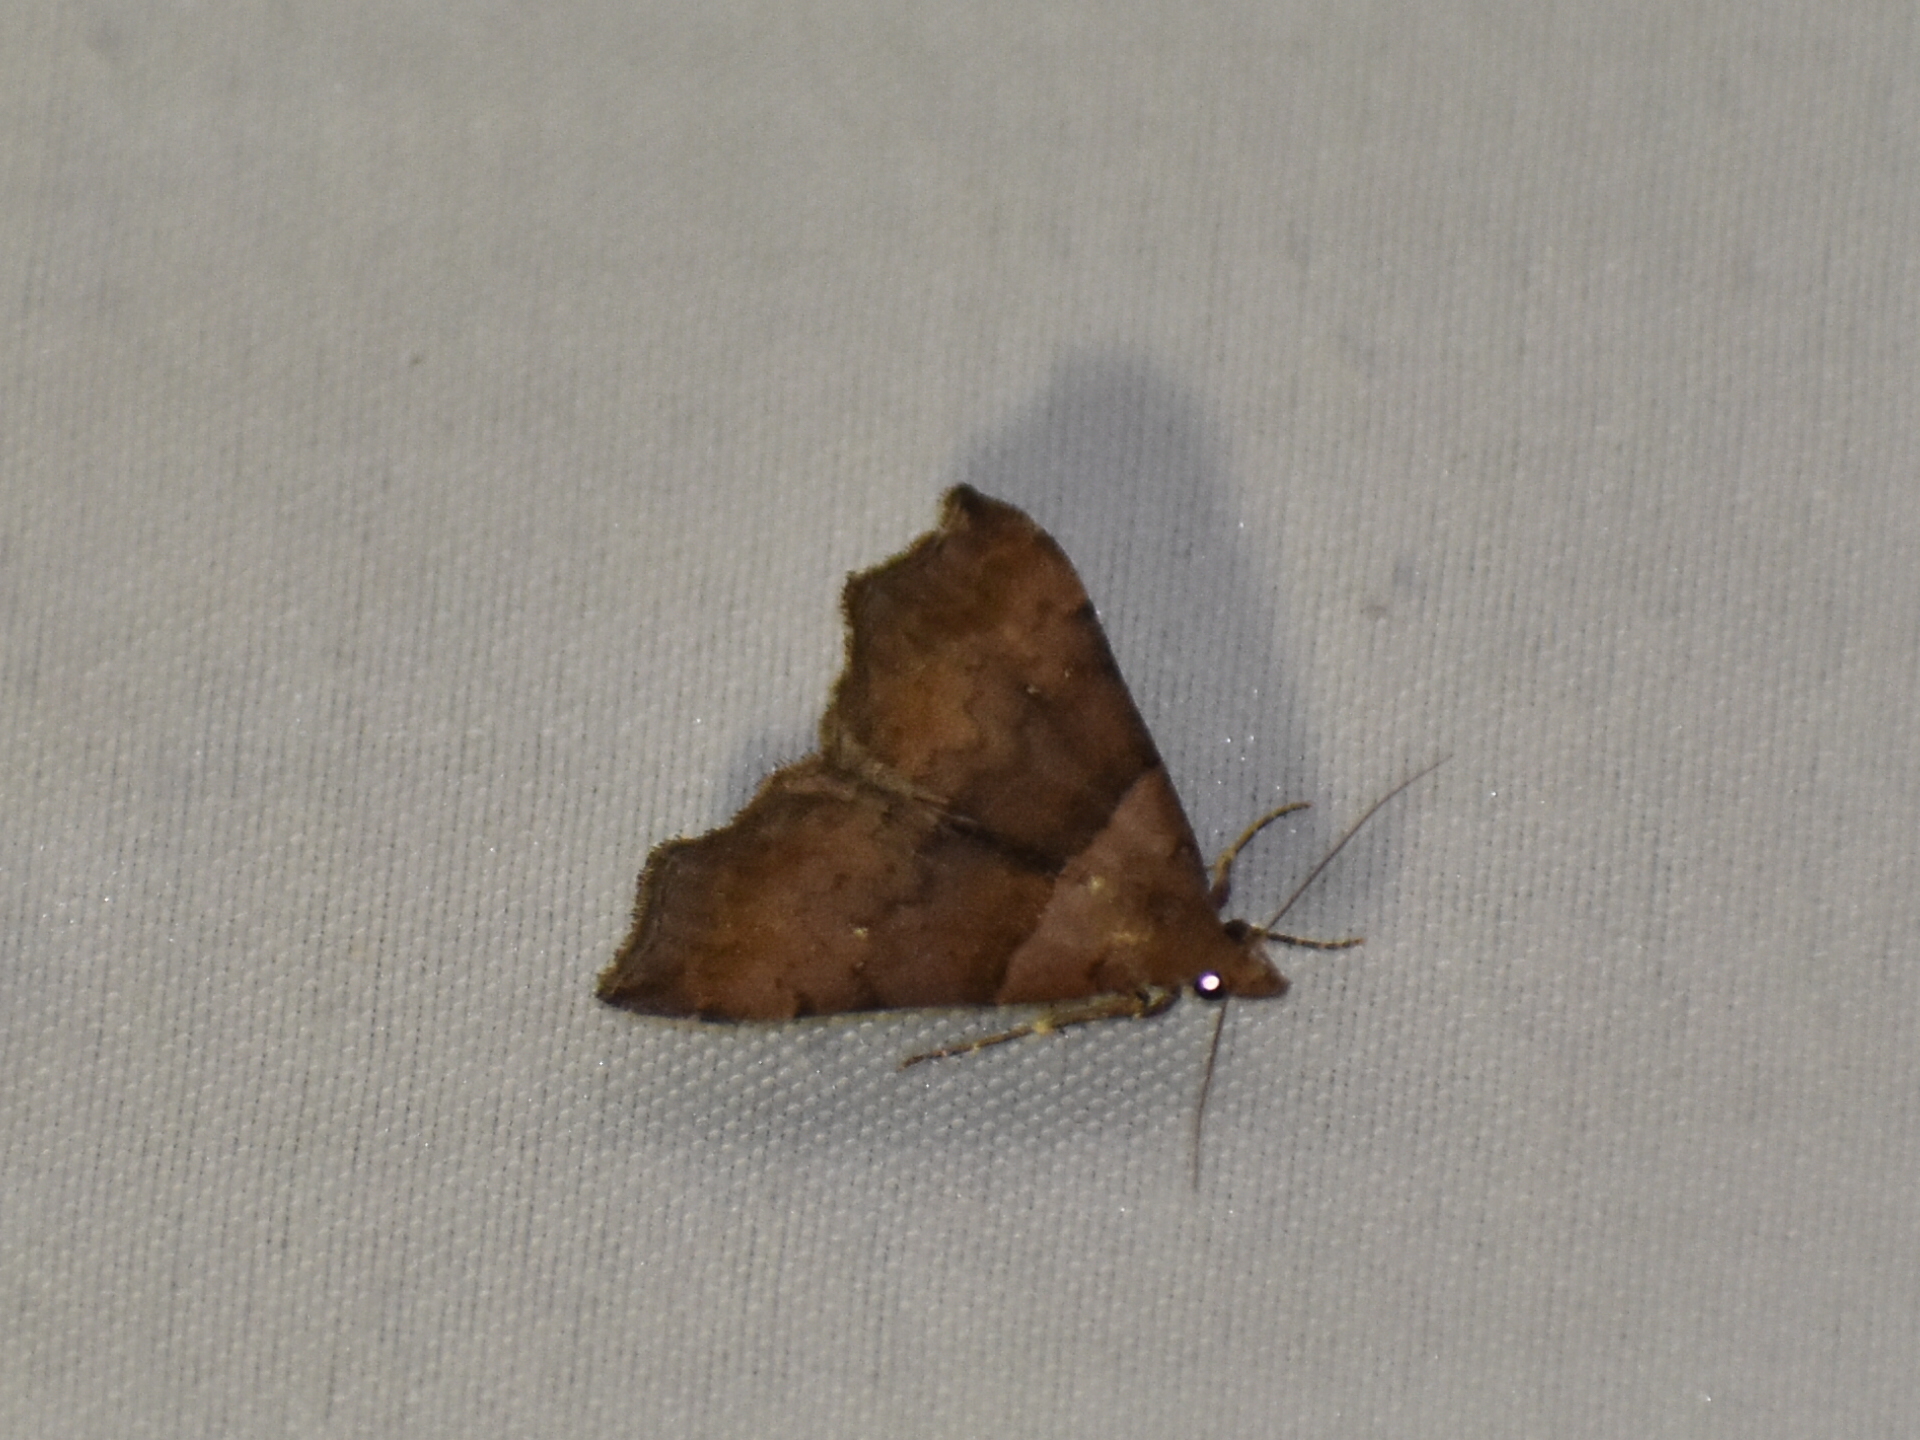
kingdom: Animalia
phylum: Arthropoda
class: Insecta
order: Lepidoptera
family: Erebidae
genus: Lascoria
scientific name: Lascoria ambigualis
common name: Ambiguous moth
